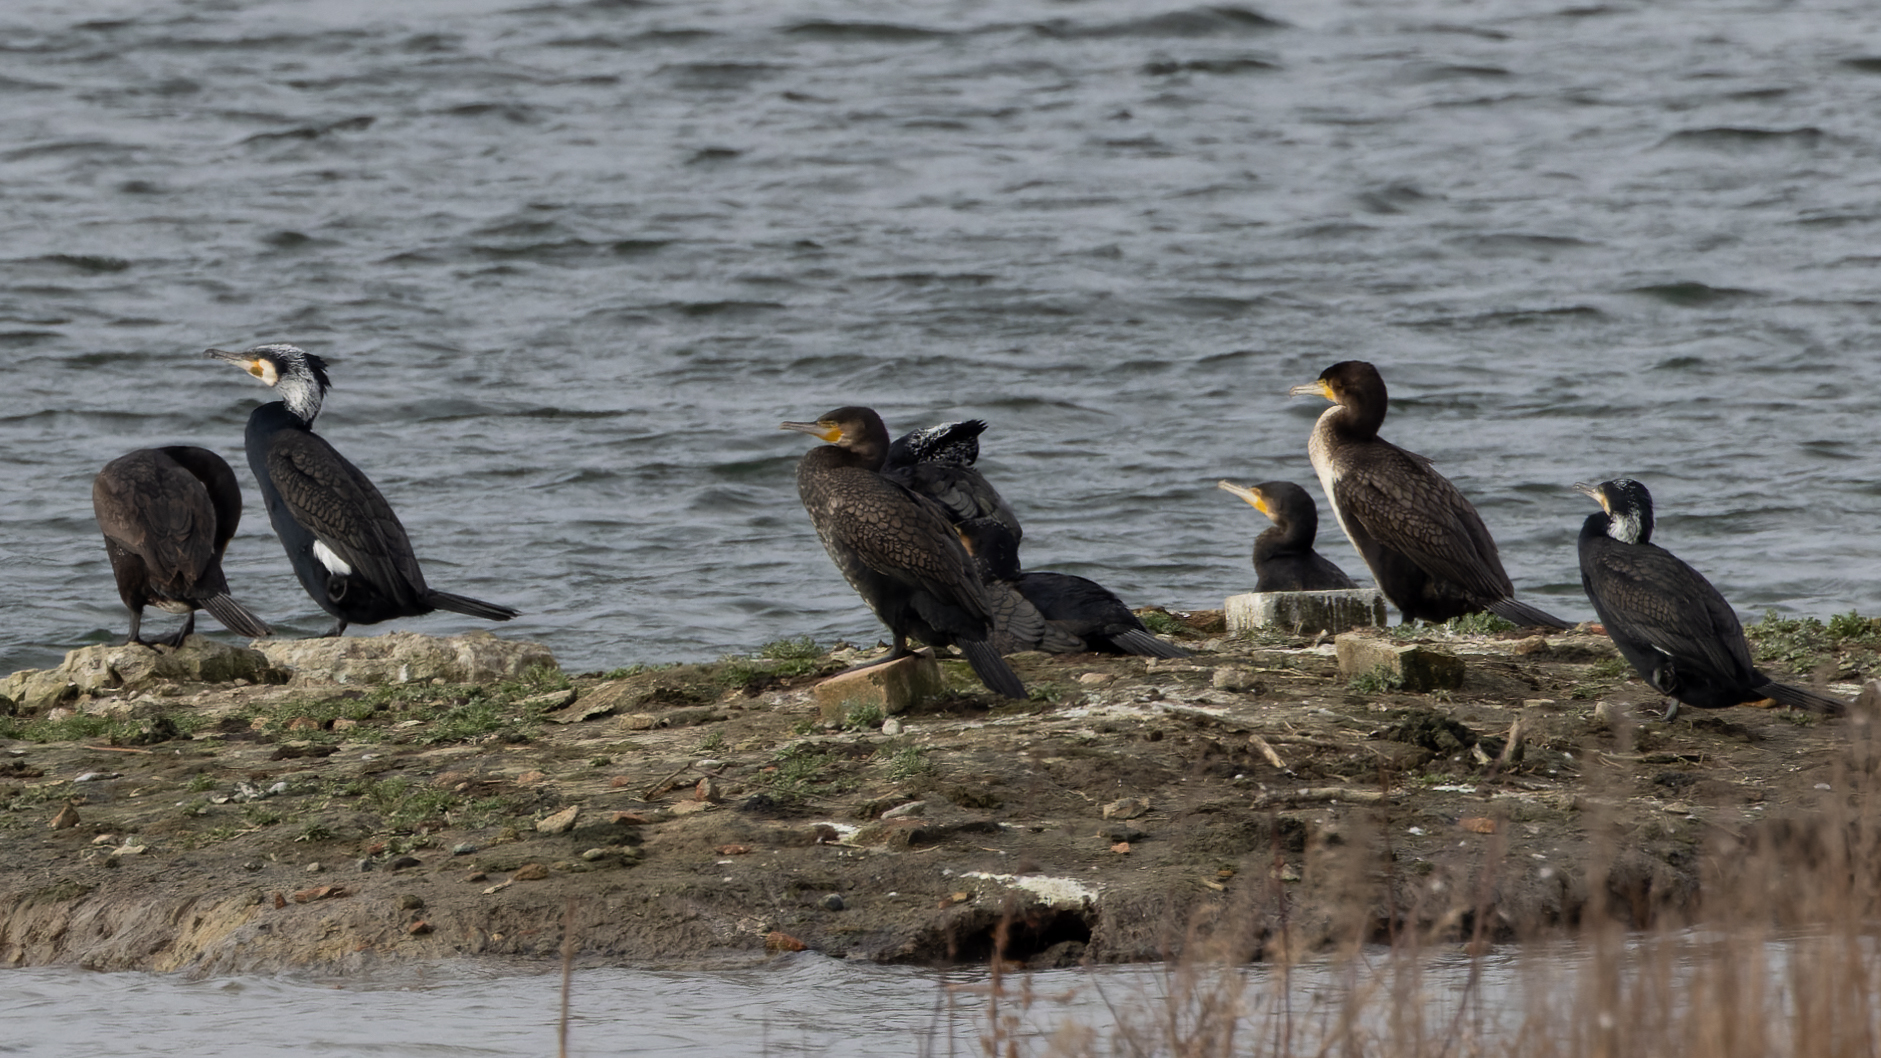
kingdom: Animalia
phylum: Chordata
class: Aves
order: Suliformes
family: Phalacrocoracidae
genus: Phalacrocorax
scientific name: Phalacrocorax carbo
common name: Great cormorant
